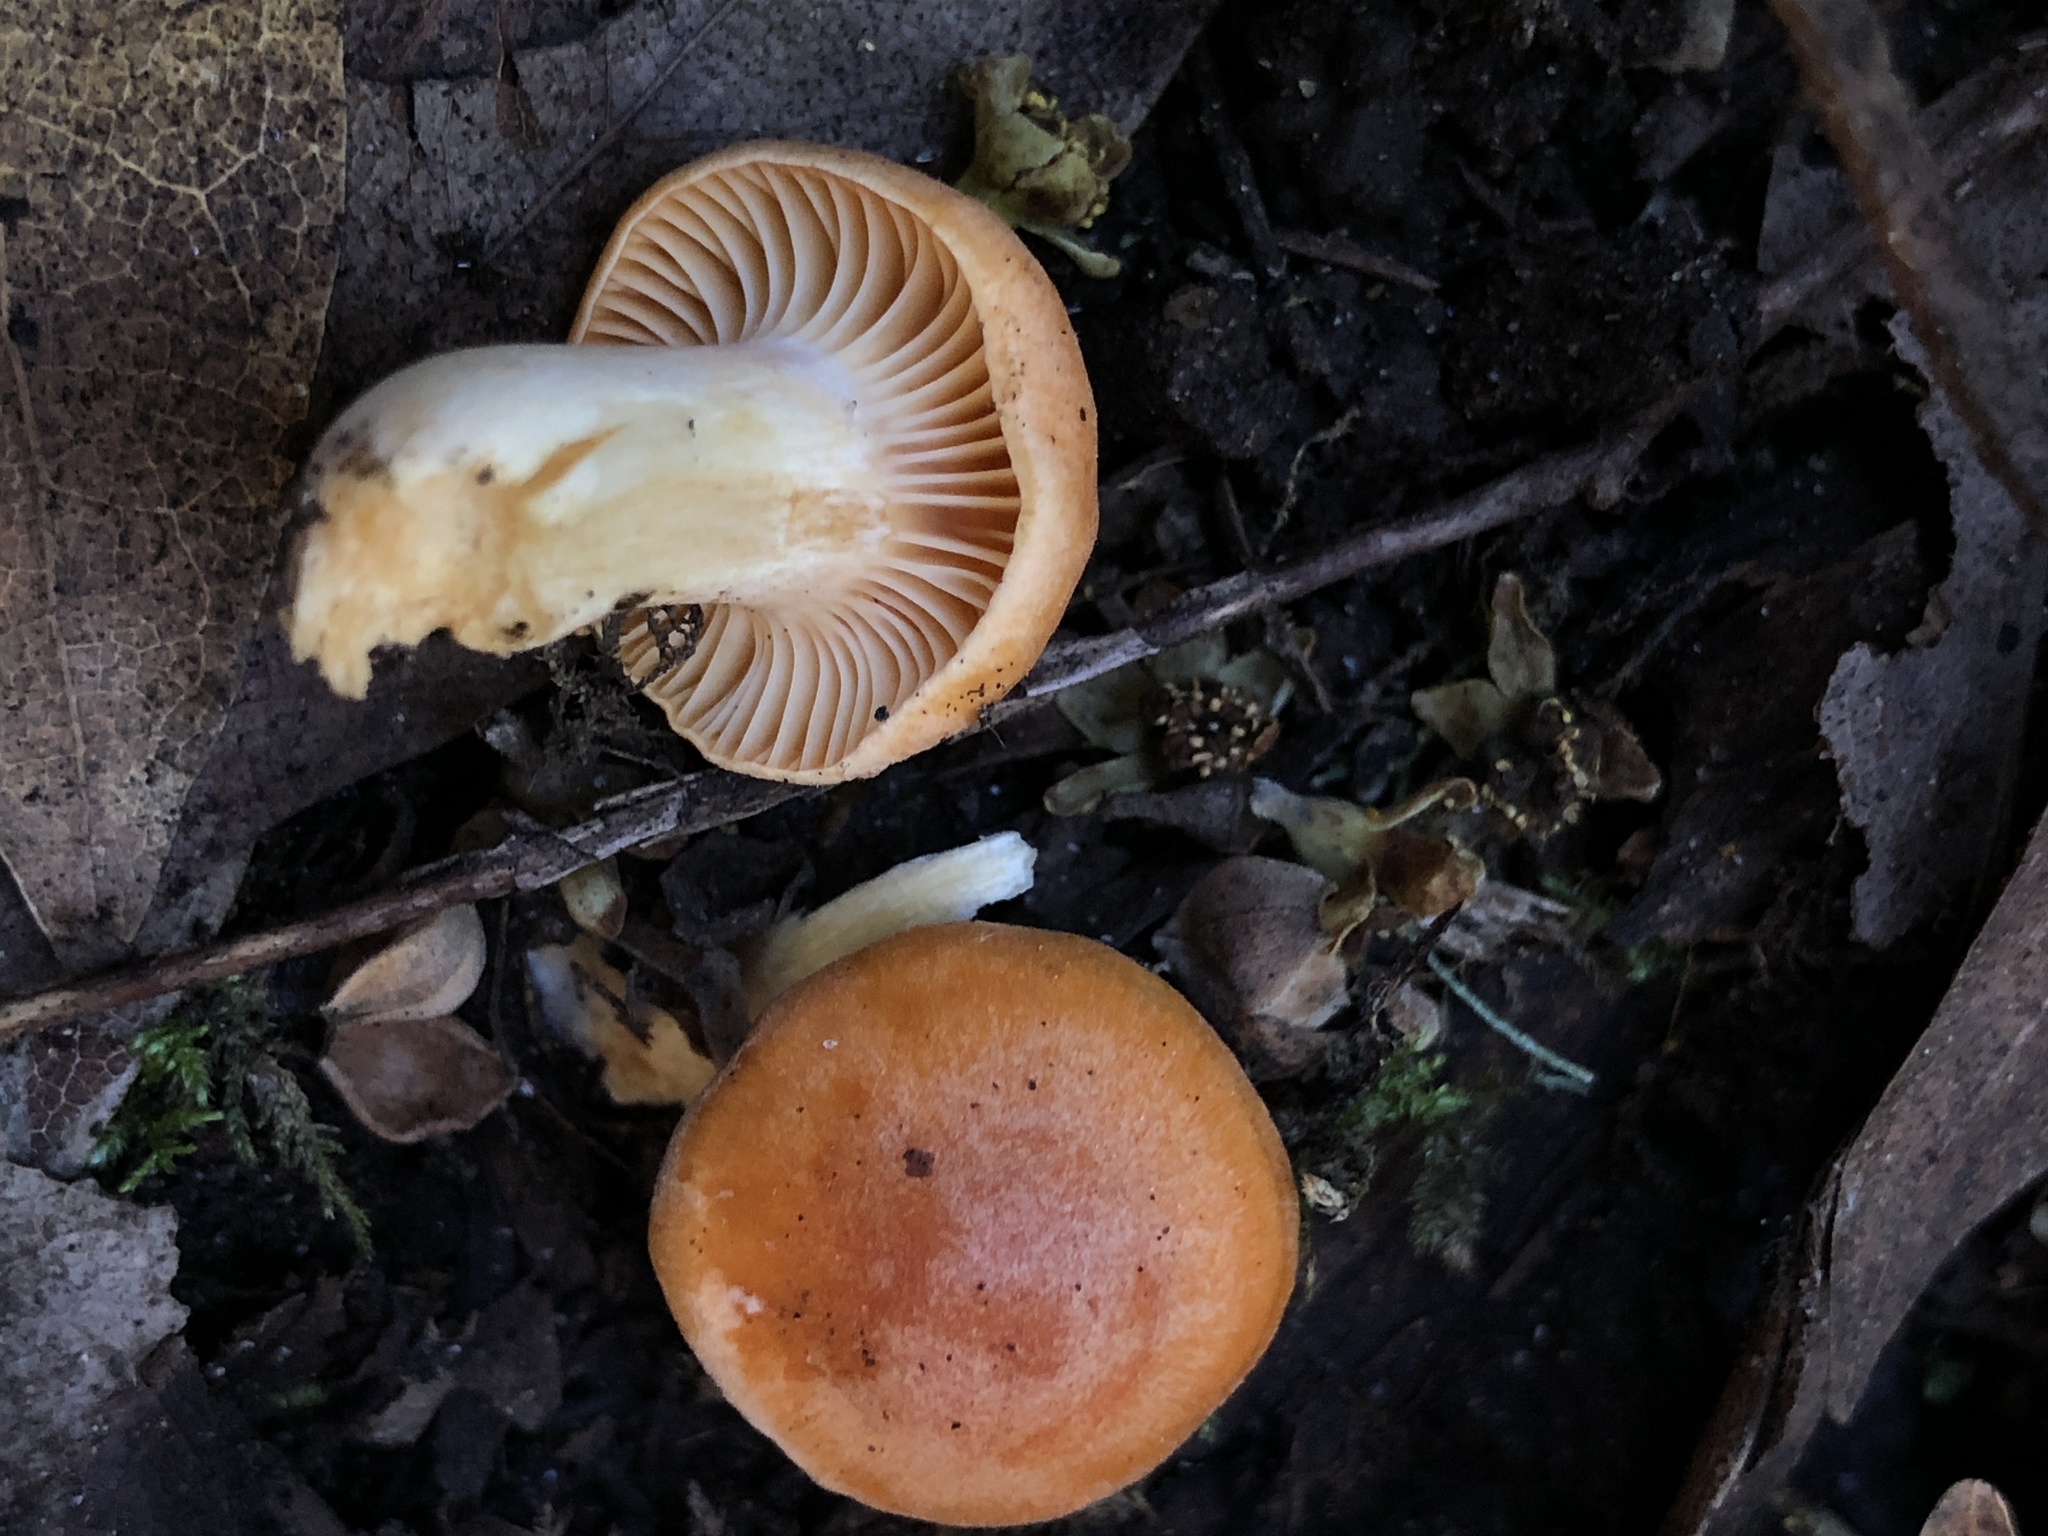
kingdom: Fungi
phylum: Basidiomycota
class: Agaricomycetes
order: Agaricales
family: Hygrophoraceae
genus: Cuphophyllus
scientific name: Cuphophyllus pratensis
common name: Meadow waxcap
